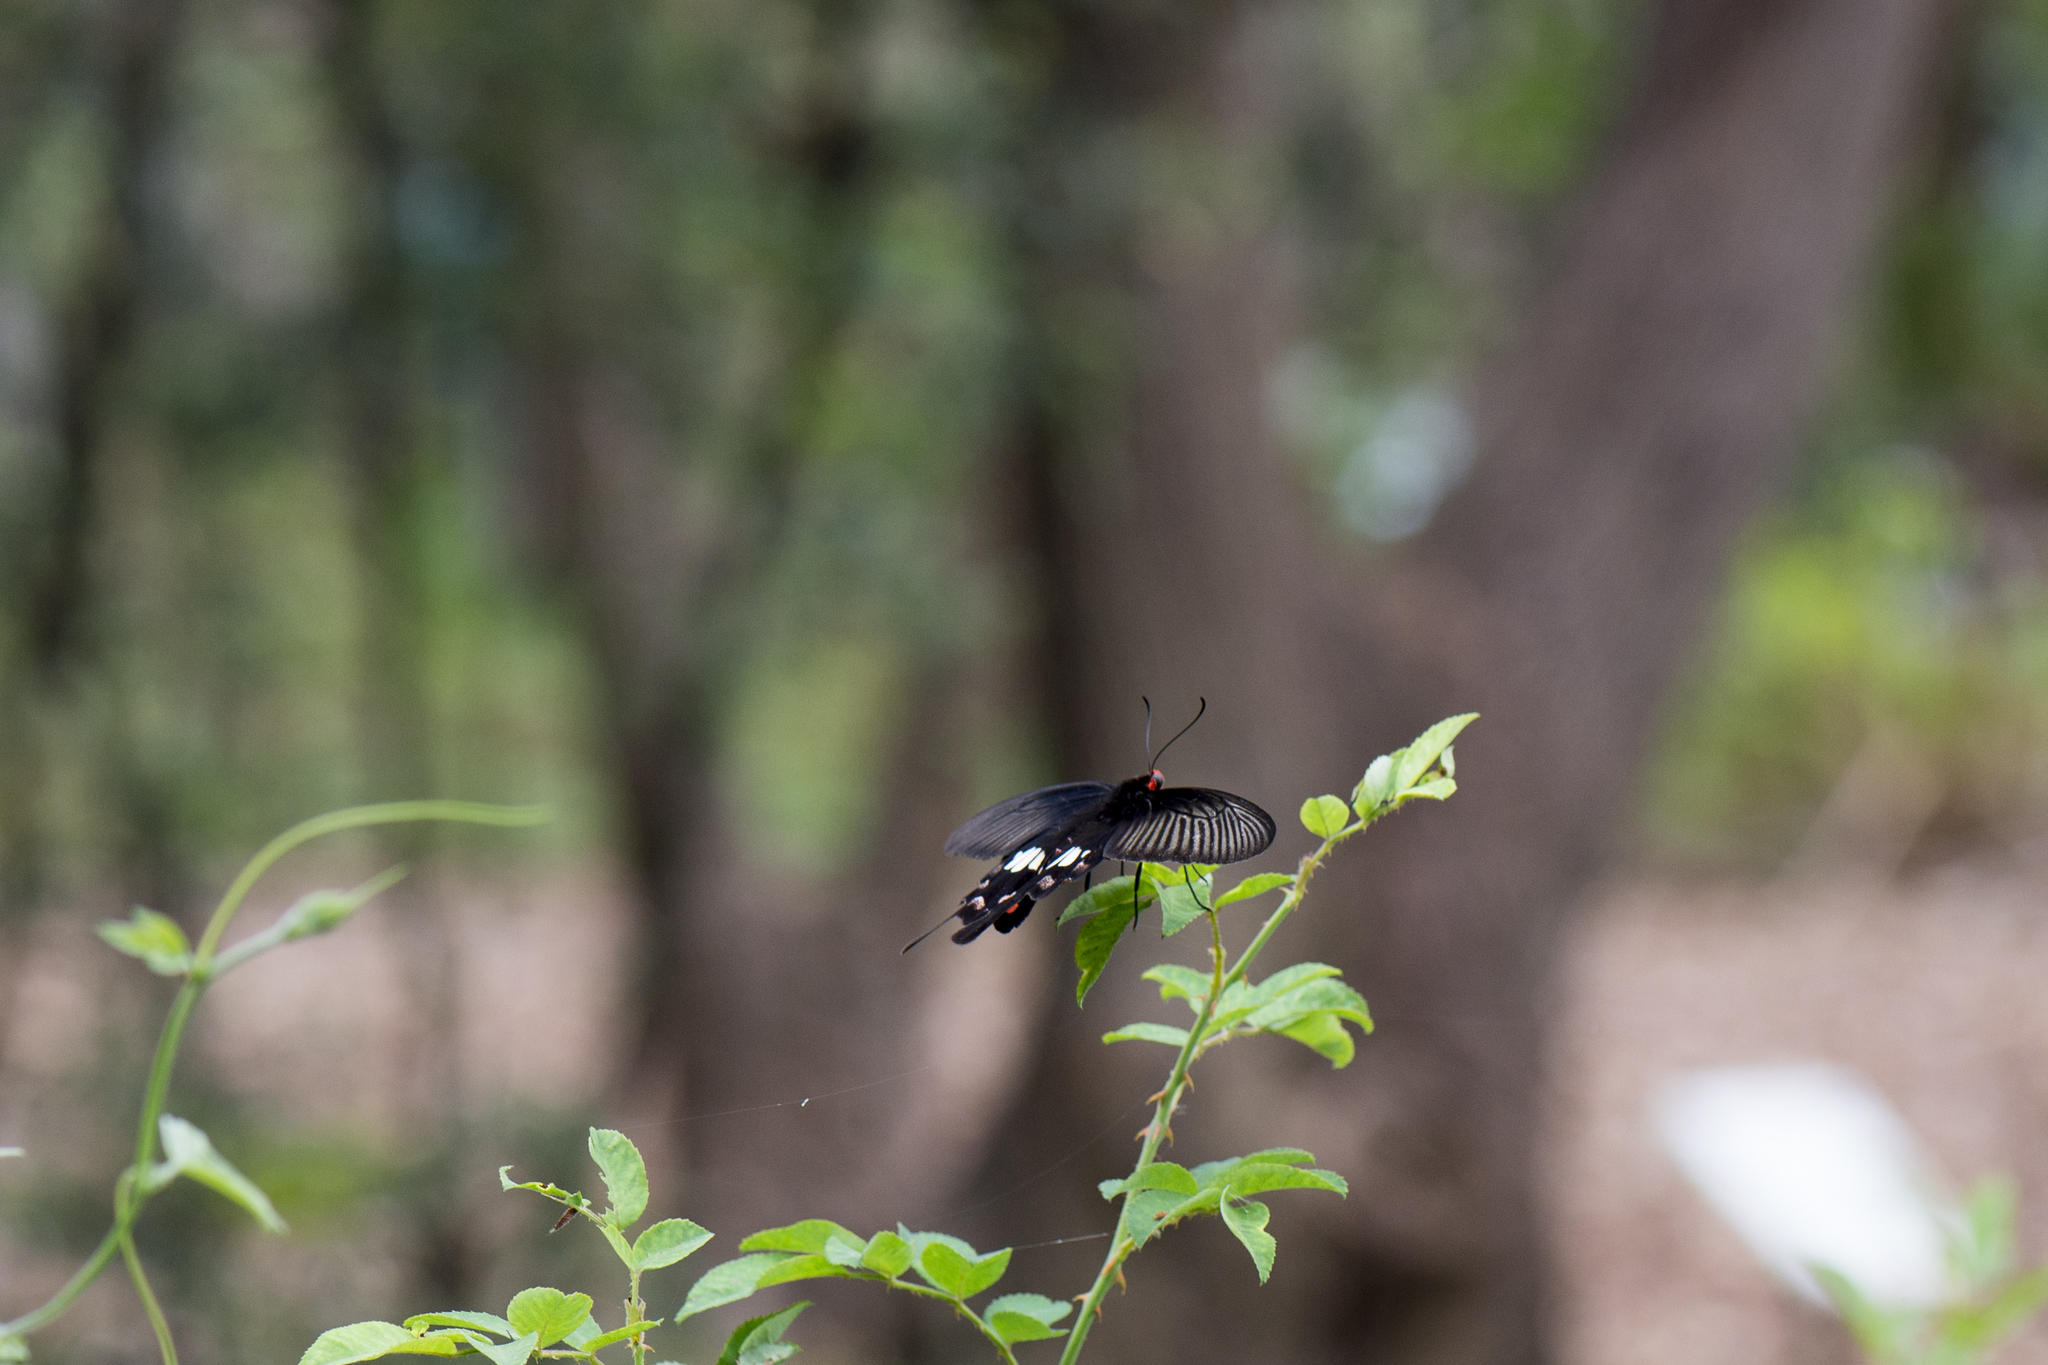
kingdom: Animalia
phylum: Arthropoda
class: Insecta
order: Lepidoptera
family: Papilionidae
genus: Pachliopta
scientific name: Pachliopta aristolochiae
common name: Common rose
